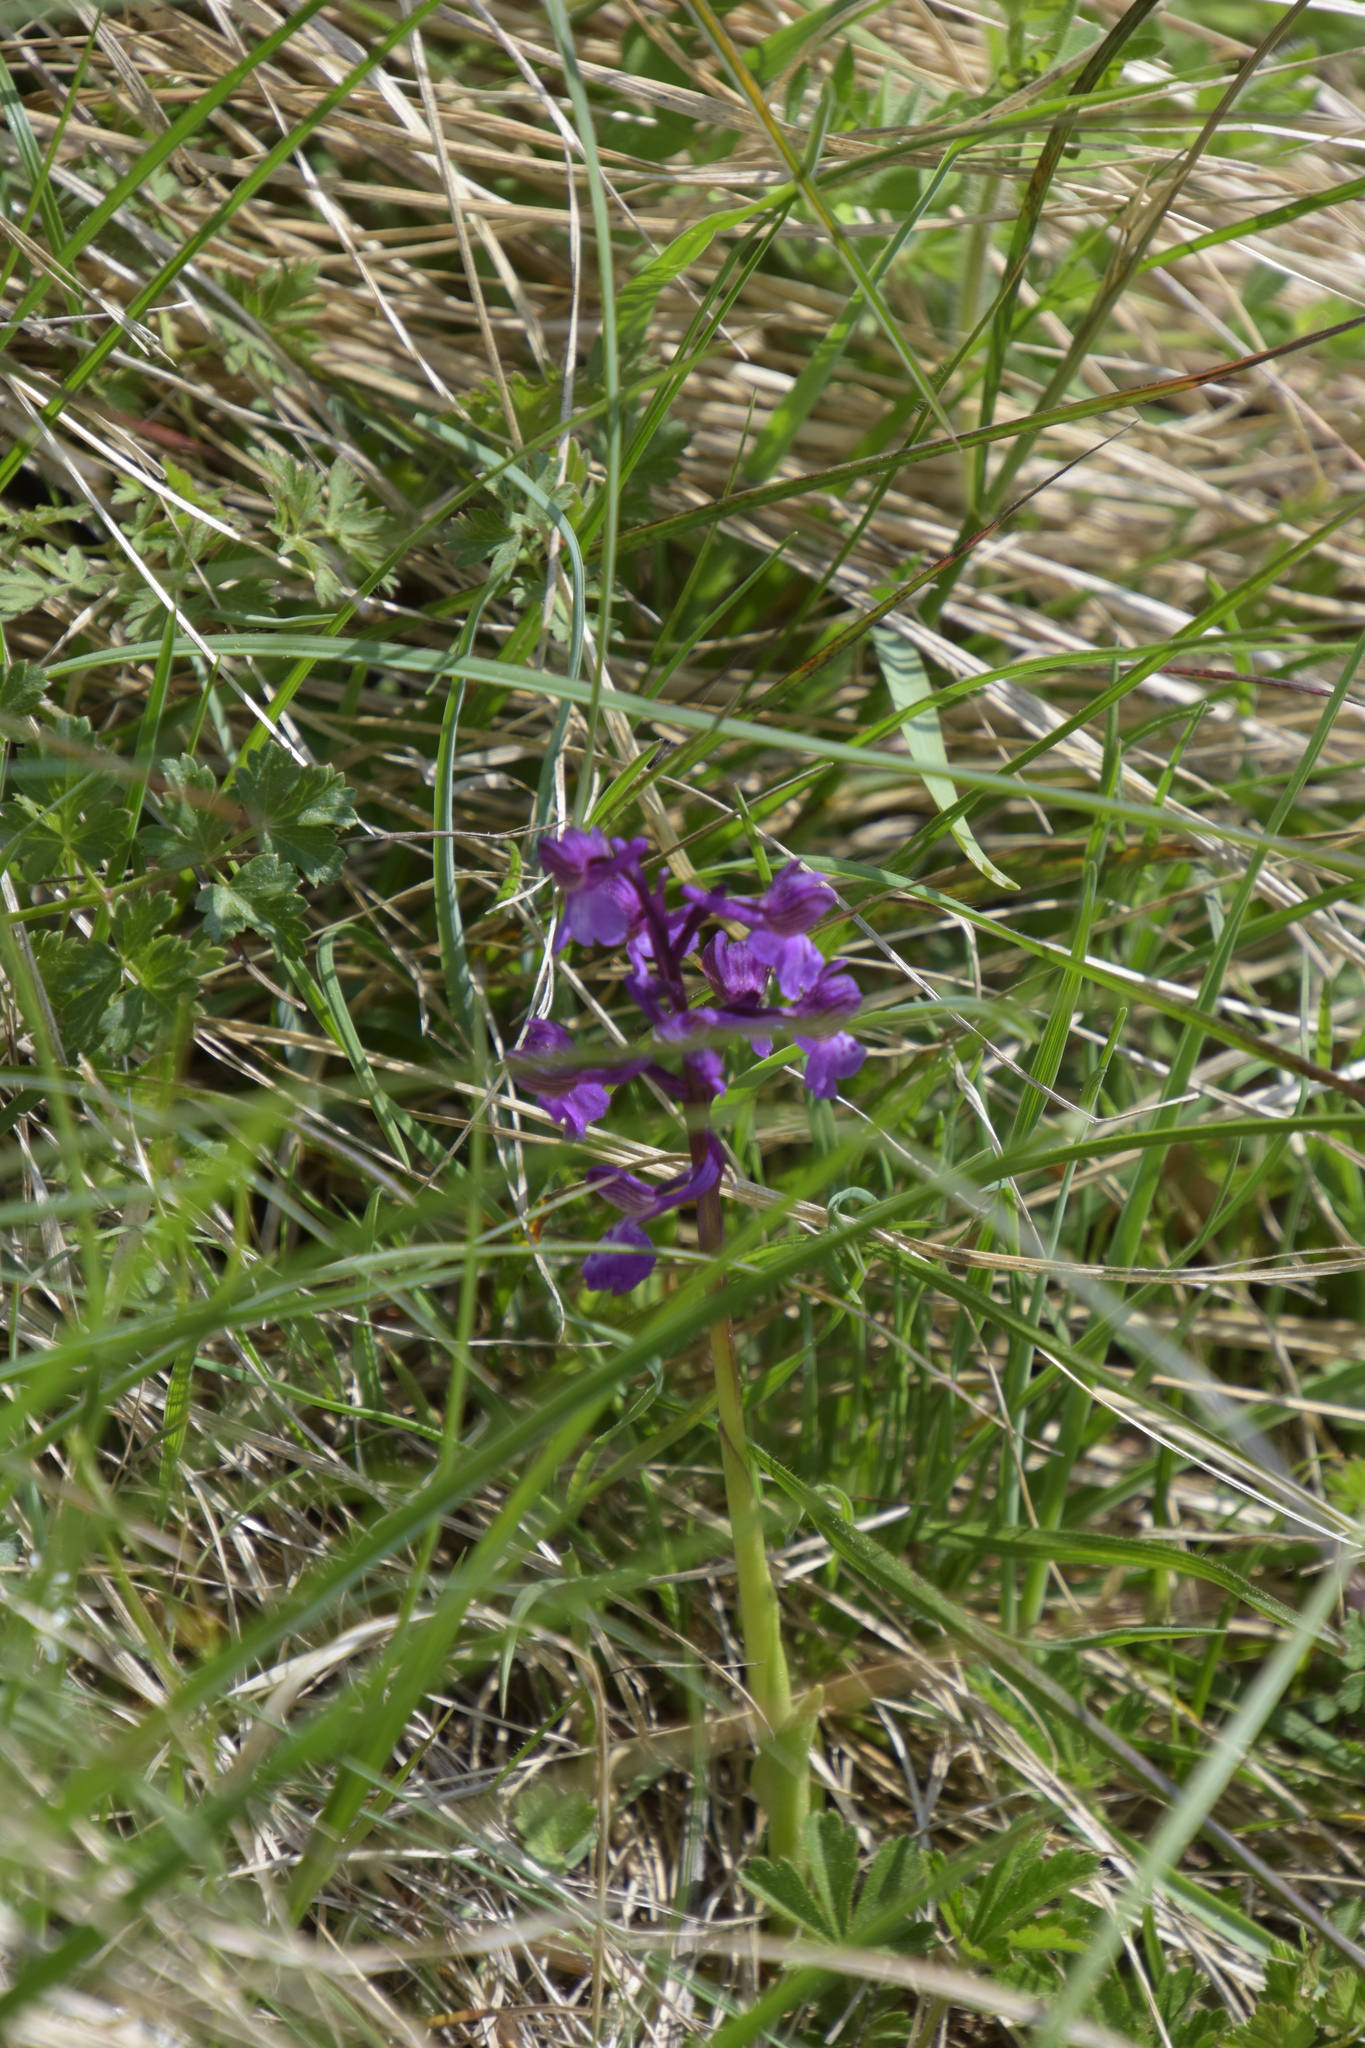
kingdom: Plantae
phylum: Tracheophyta
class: Liliopsida
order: Asparagales
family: Orchidaceae
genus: Anacamptis
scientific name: Anacamptis morio
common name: Green-winged orchid
